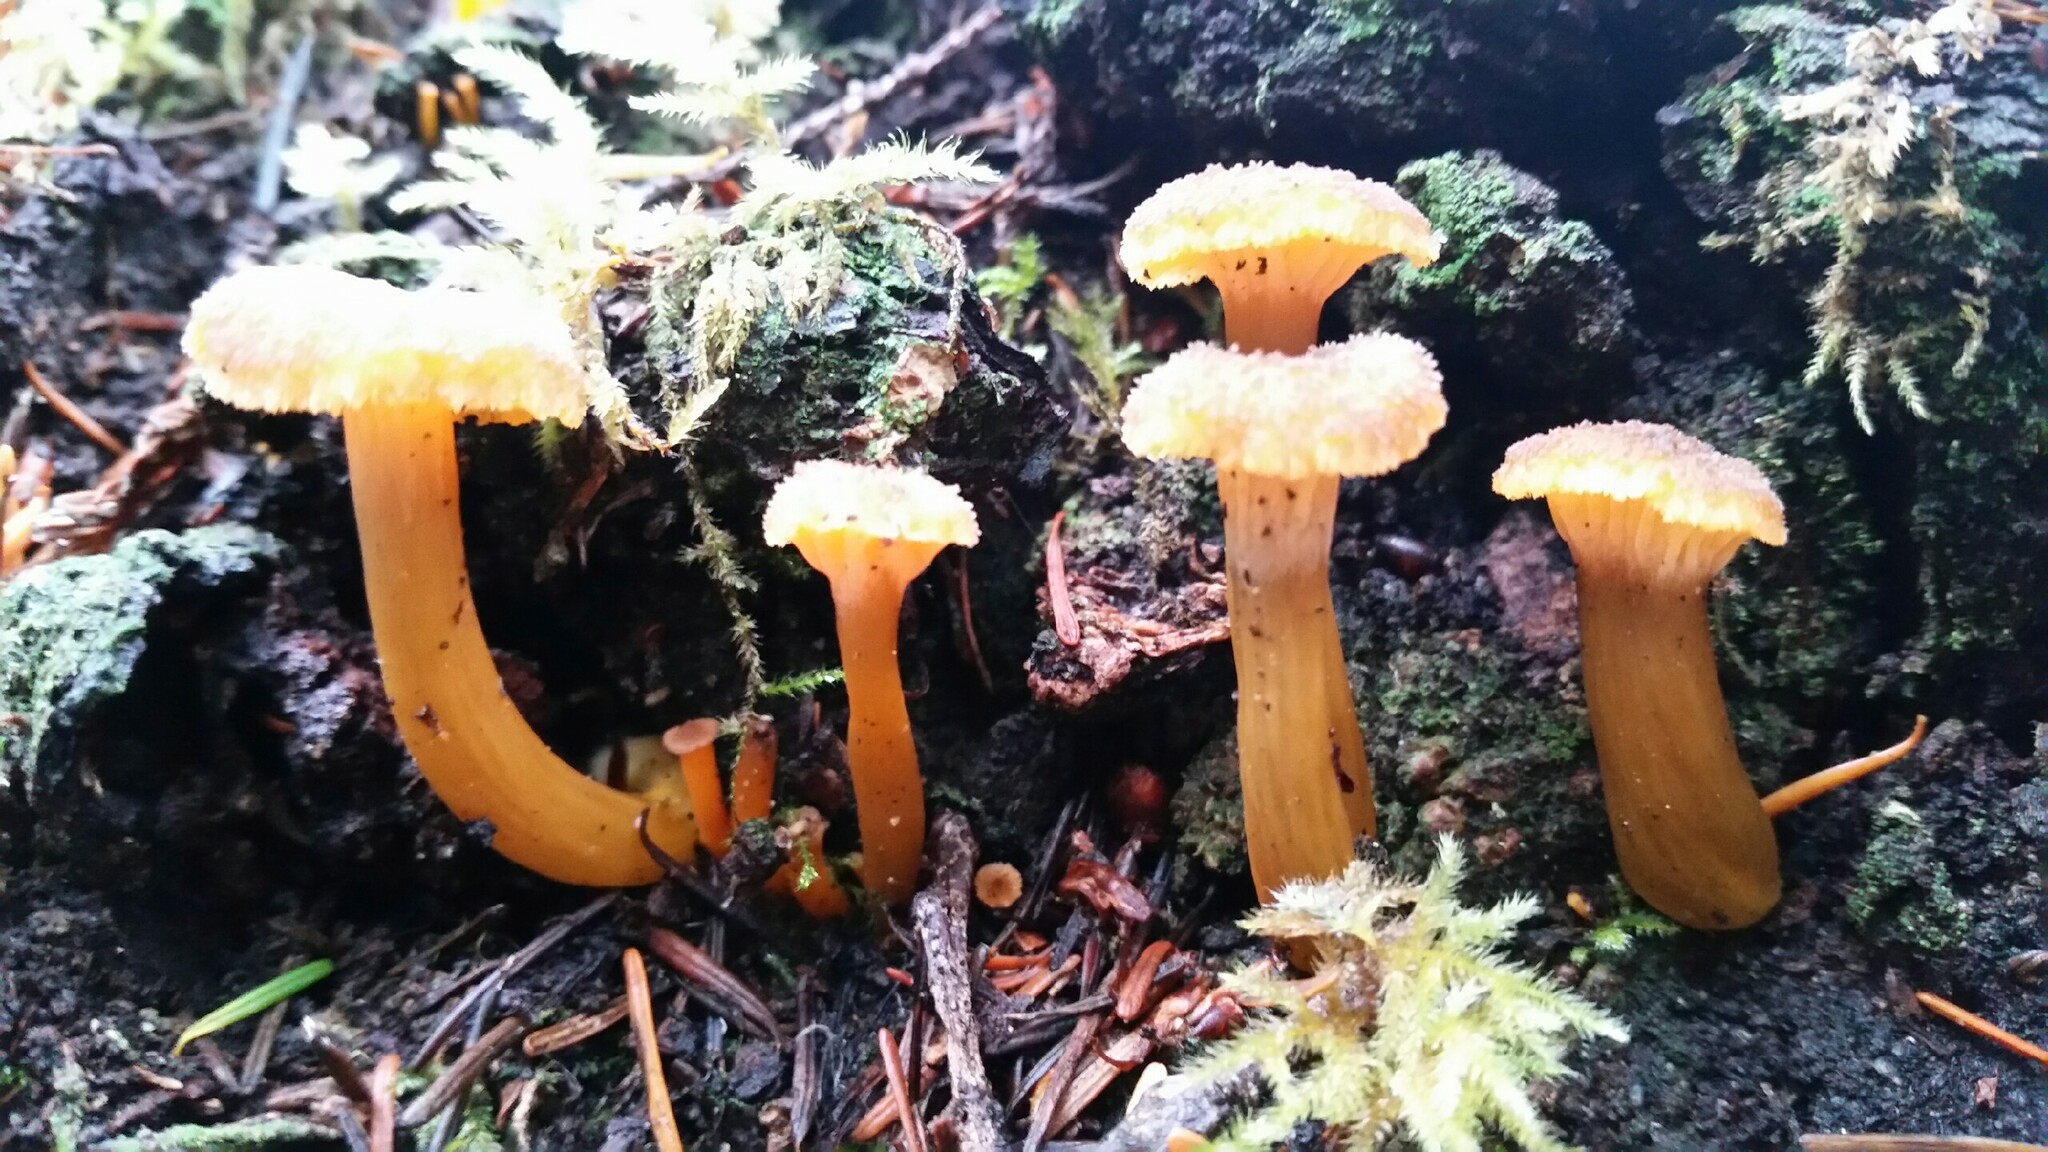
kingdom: Fungi
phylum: Basidiomycota
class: Agaricomycetes
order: Cantharellales
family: Hydnaceae
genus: Craterellus
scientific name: Craterellus tubaeformis
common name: Yellowfoot
